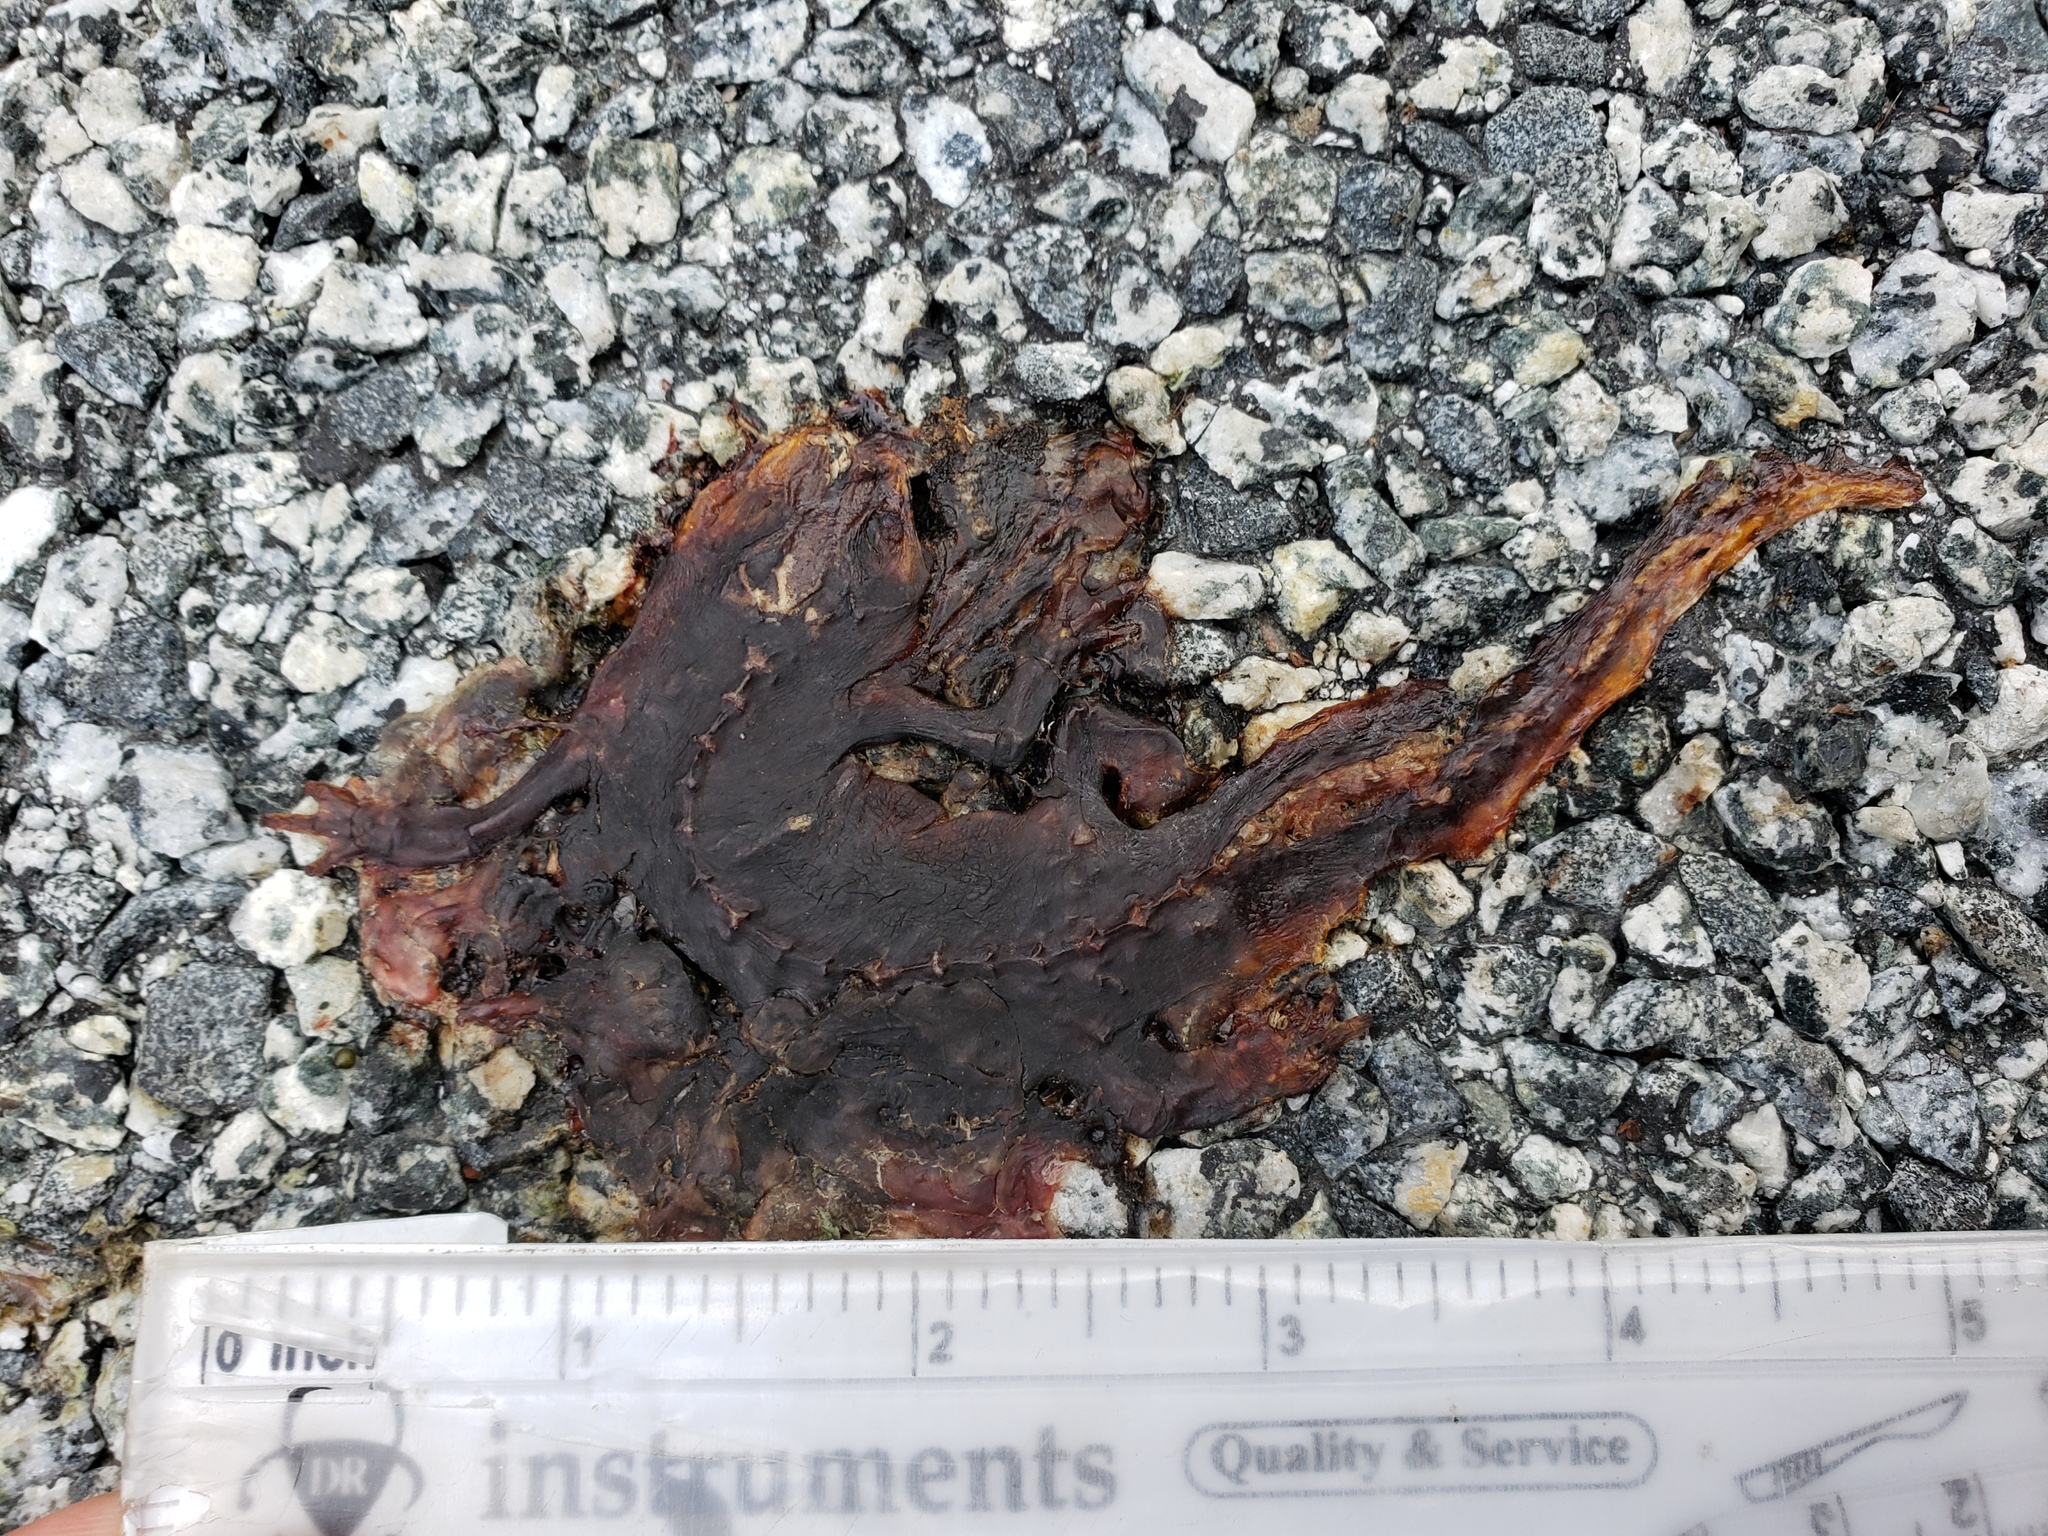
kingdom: Animalia
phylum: Chordata
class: Amphibia
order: Caudata
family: Salamandridae
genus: Taricha
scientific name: Taricha
